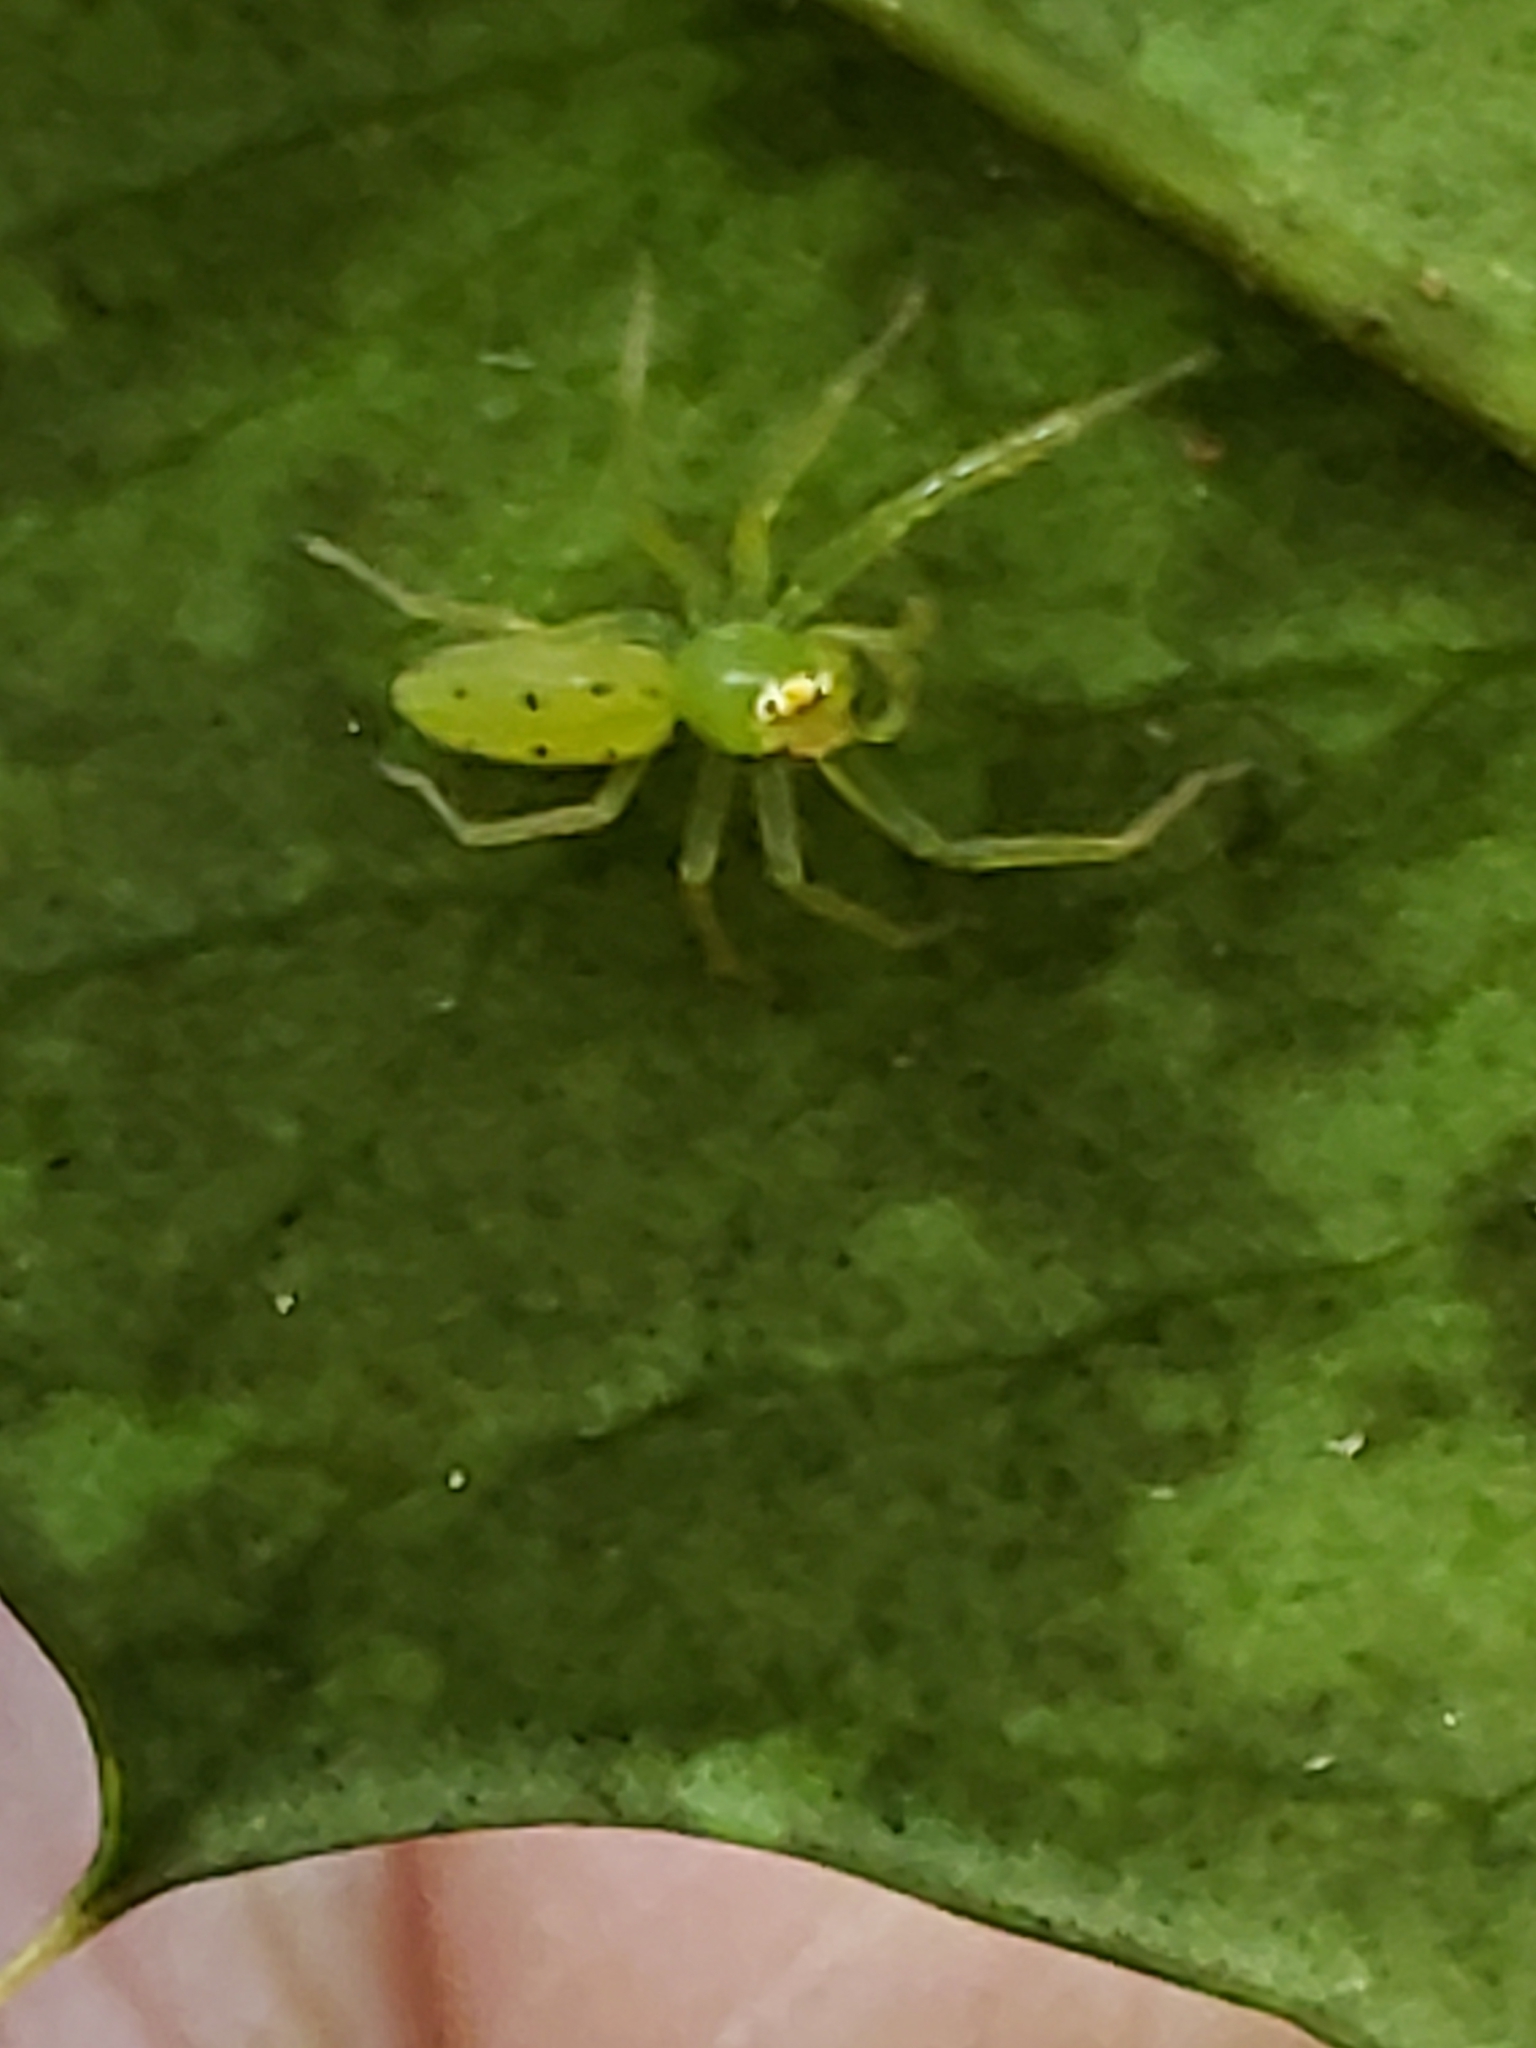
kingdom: Animalia
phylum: Arthropoda
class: Arachnida
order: Araneae
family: Salticidae
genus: Lyssomanes
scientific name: Lyssomanes viridis
